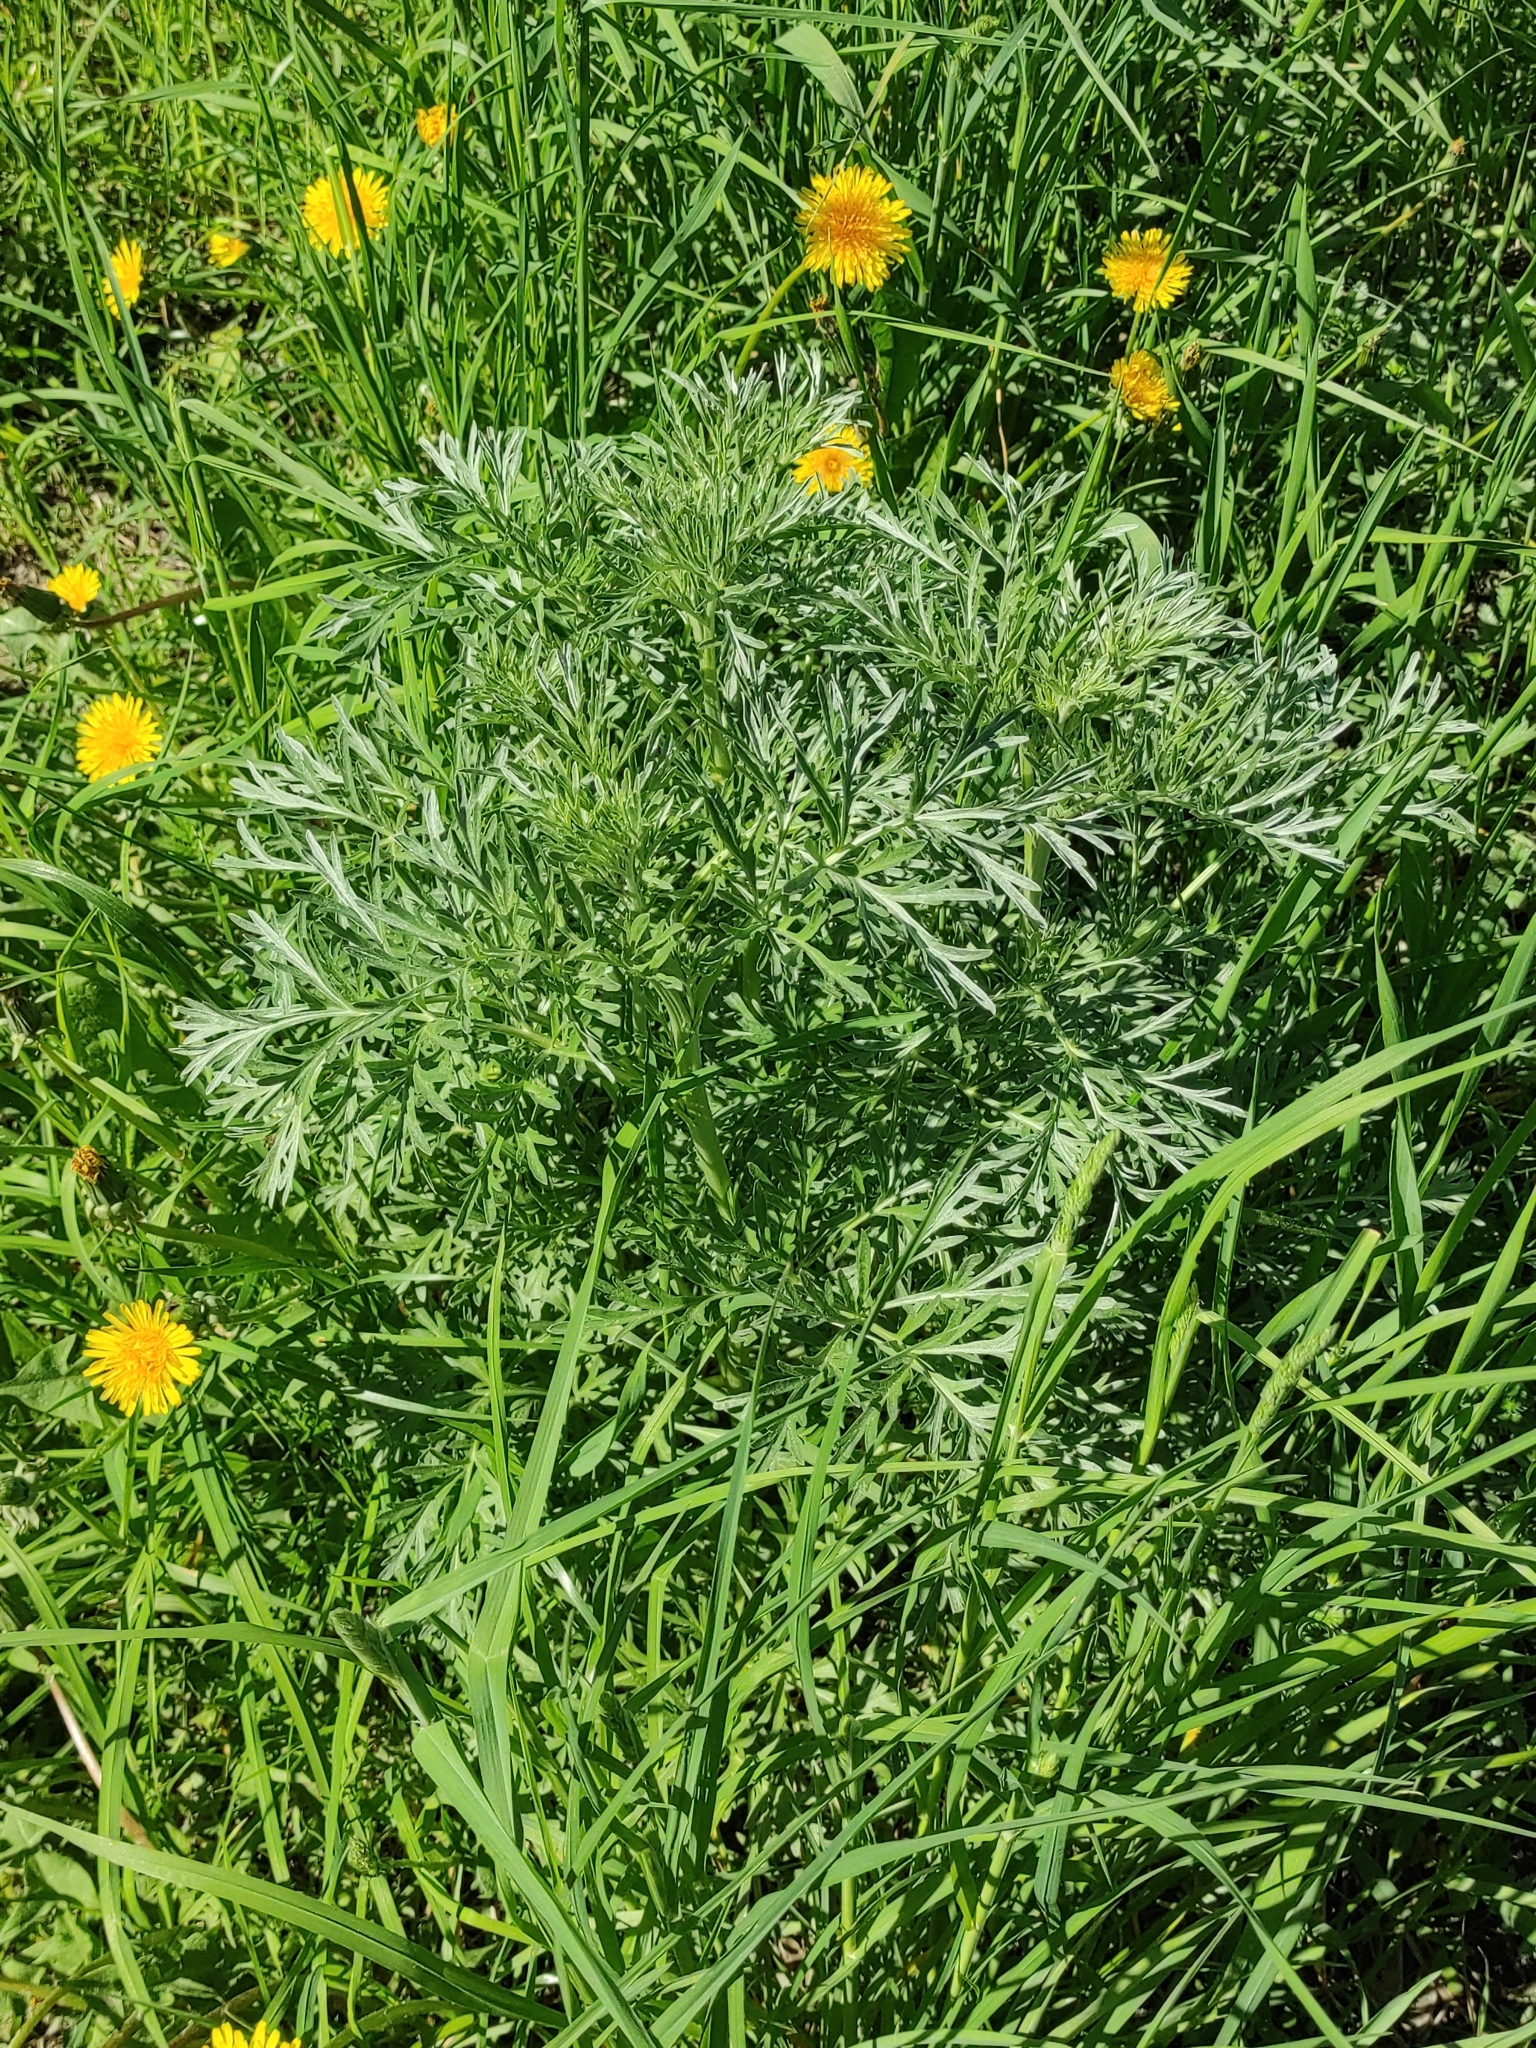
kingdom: Plantae
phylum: Tracheophyta
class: Magnoliopsida
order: Asterales
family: Asteraceae
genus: Artemisia
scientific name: Artemisia absinthium
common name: Wormwood
